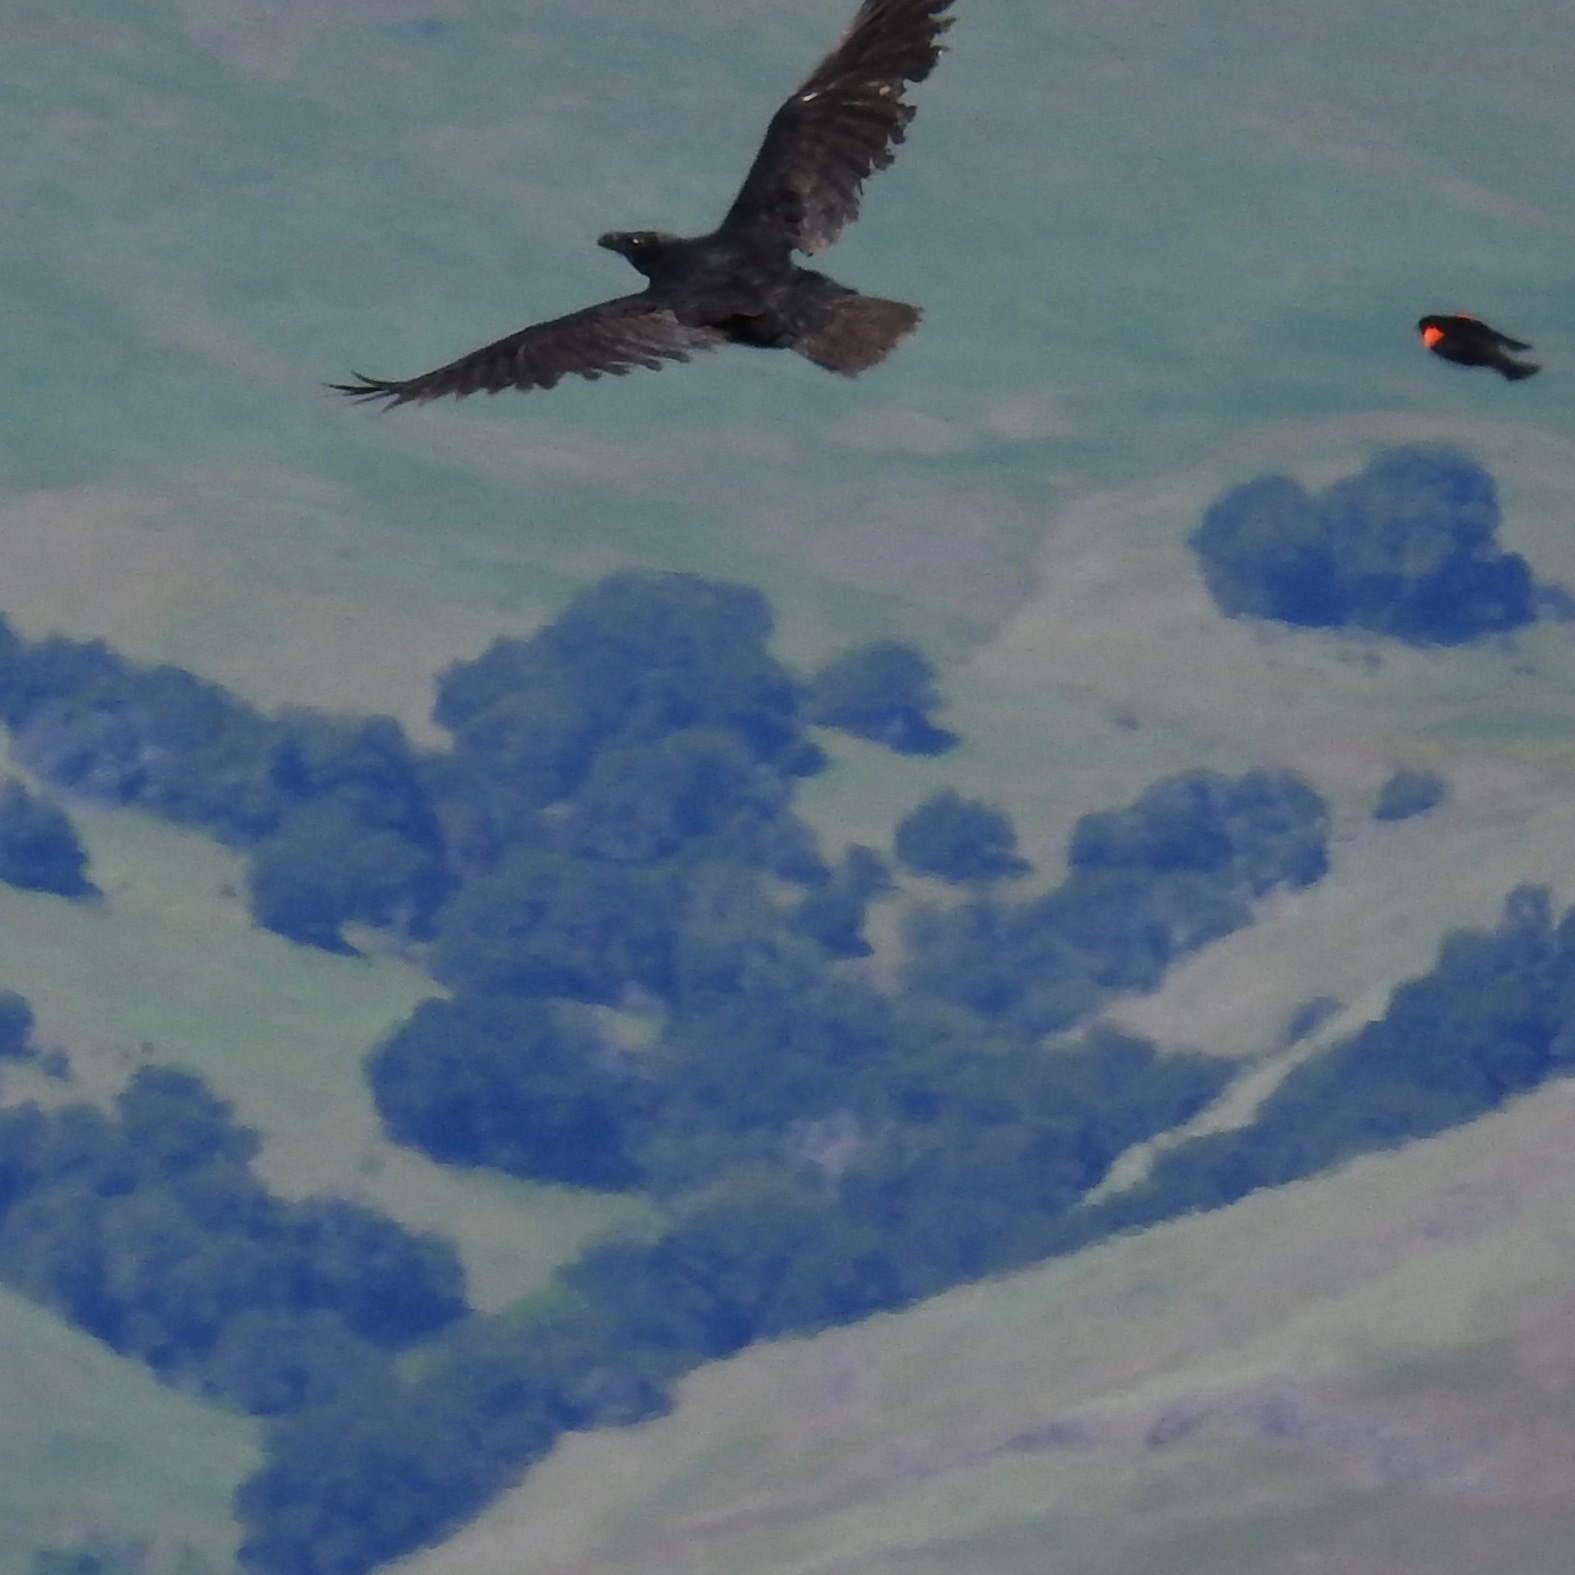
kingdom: Animalia
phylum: Chordata
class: Aves
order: Passeriformes
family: Corvidae
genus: Corvus
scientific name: Corvus corax
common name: Common raven
